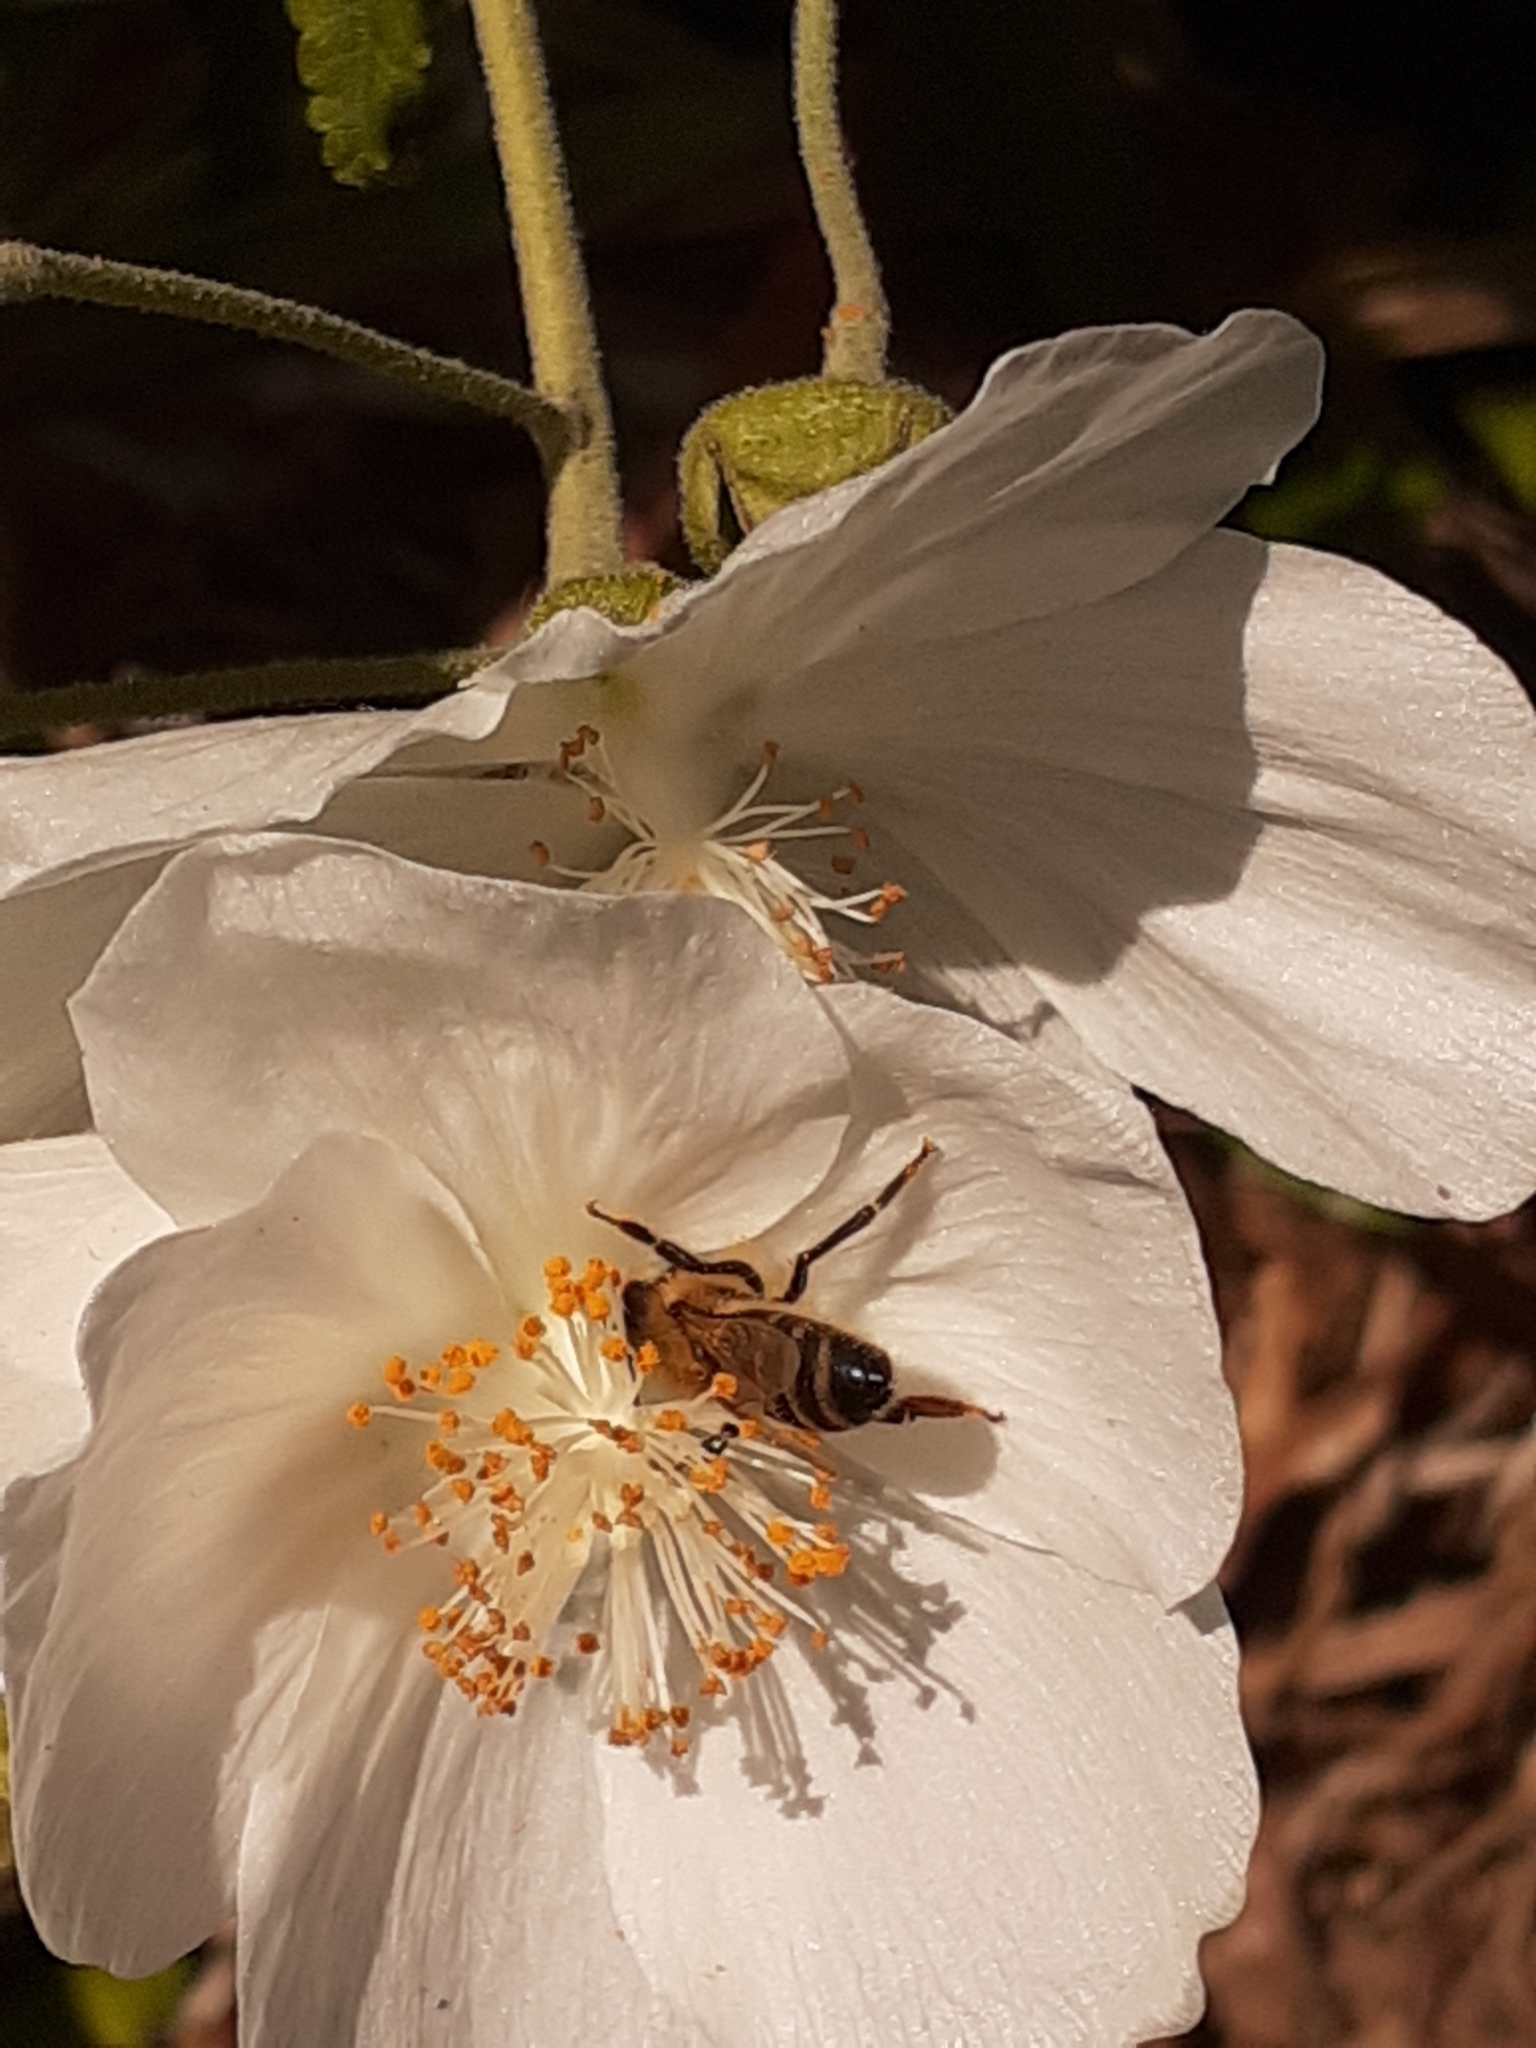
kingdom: Animalia
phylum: Arthropoda
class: Insecta
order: Hymenoptera
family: Apidae
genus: Apis
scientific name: Apis mellifera
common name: Honey bee
